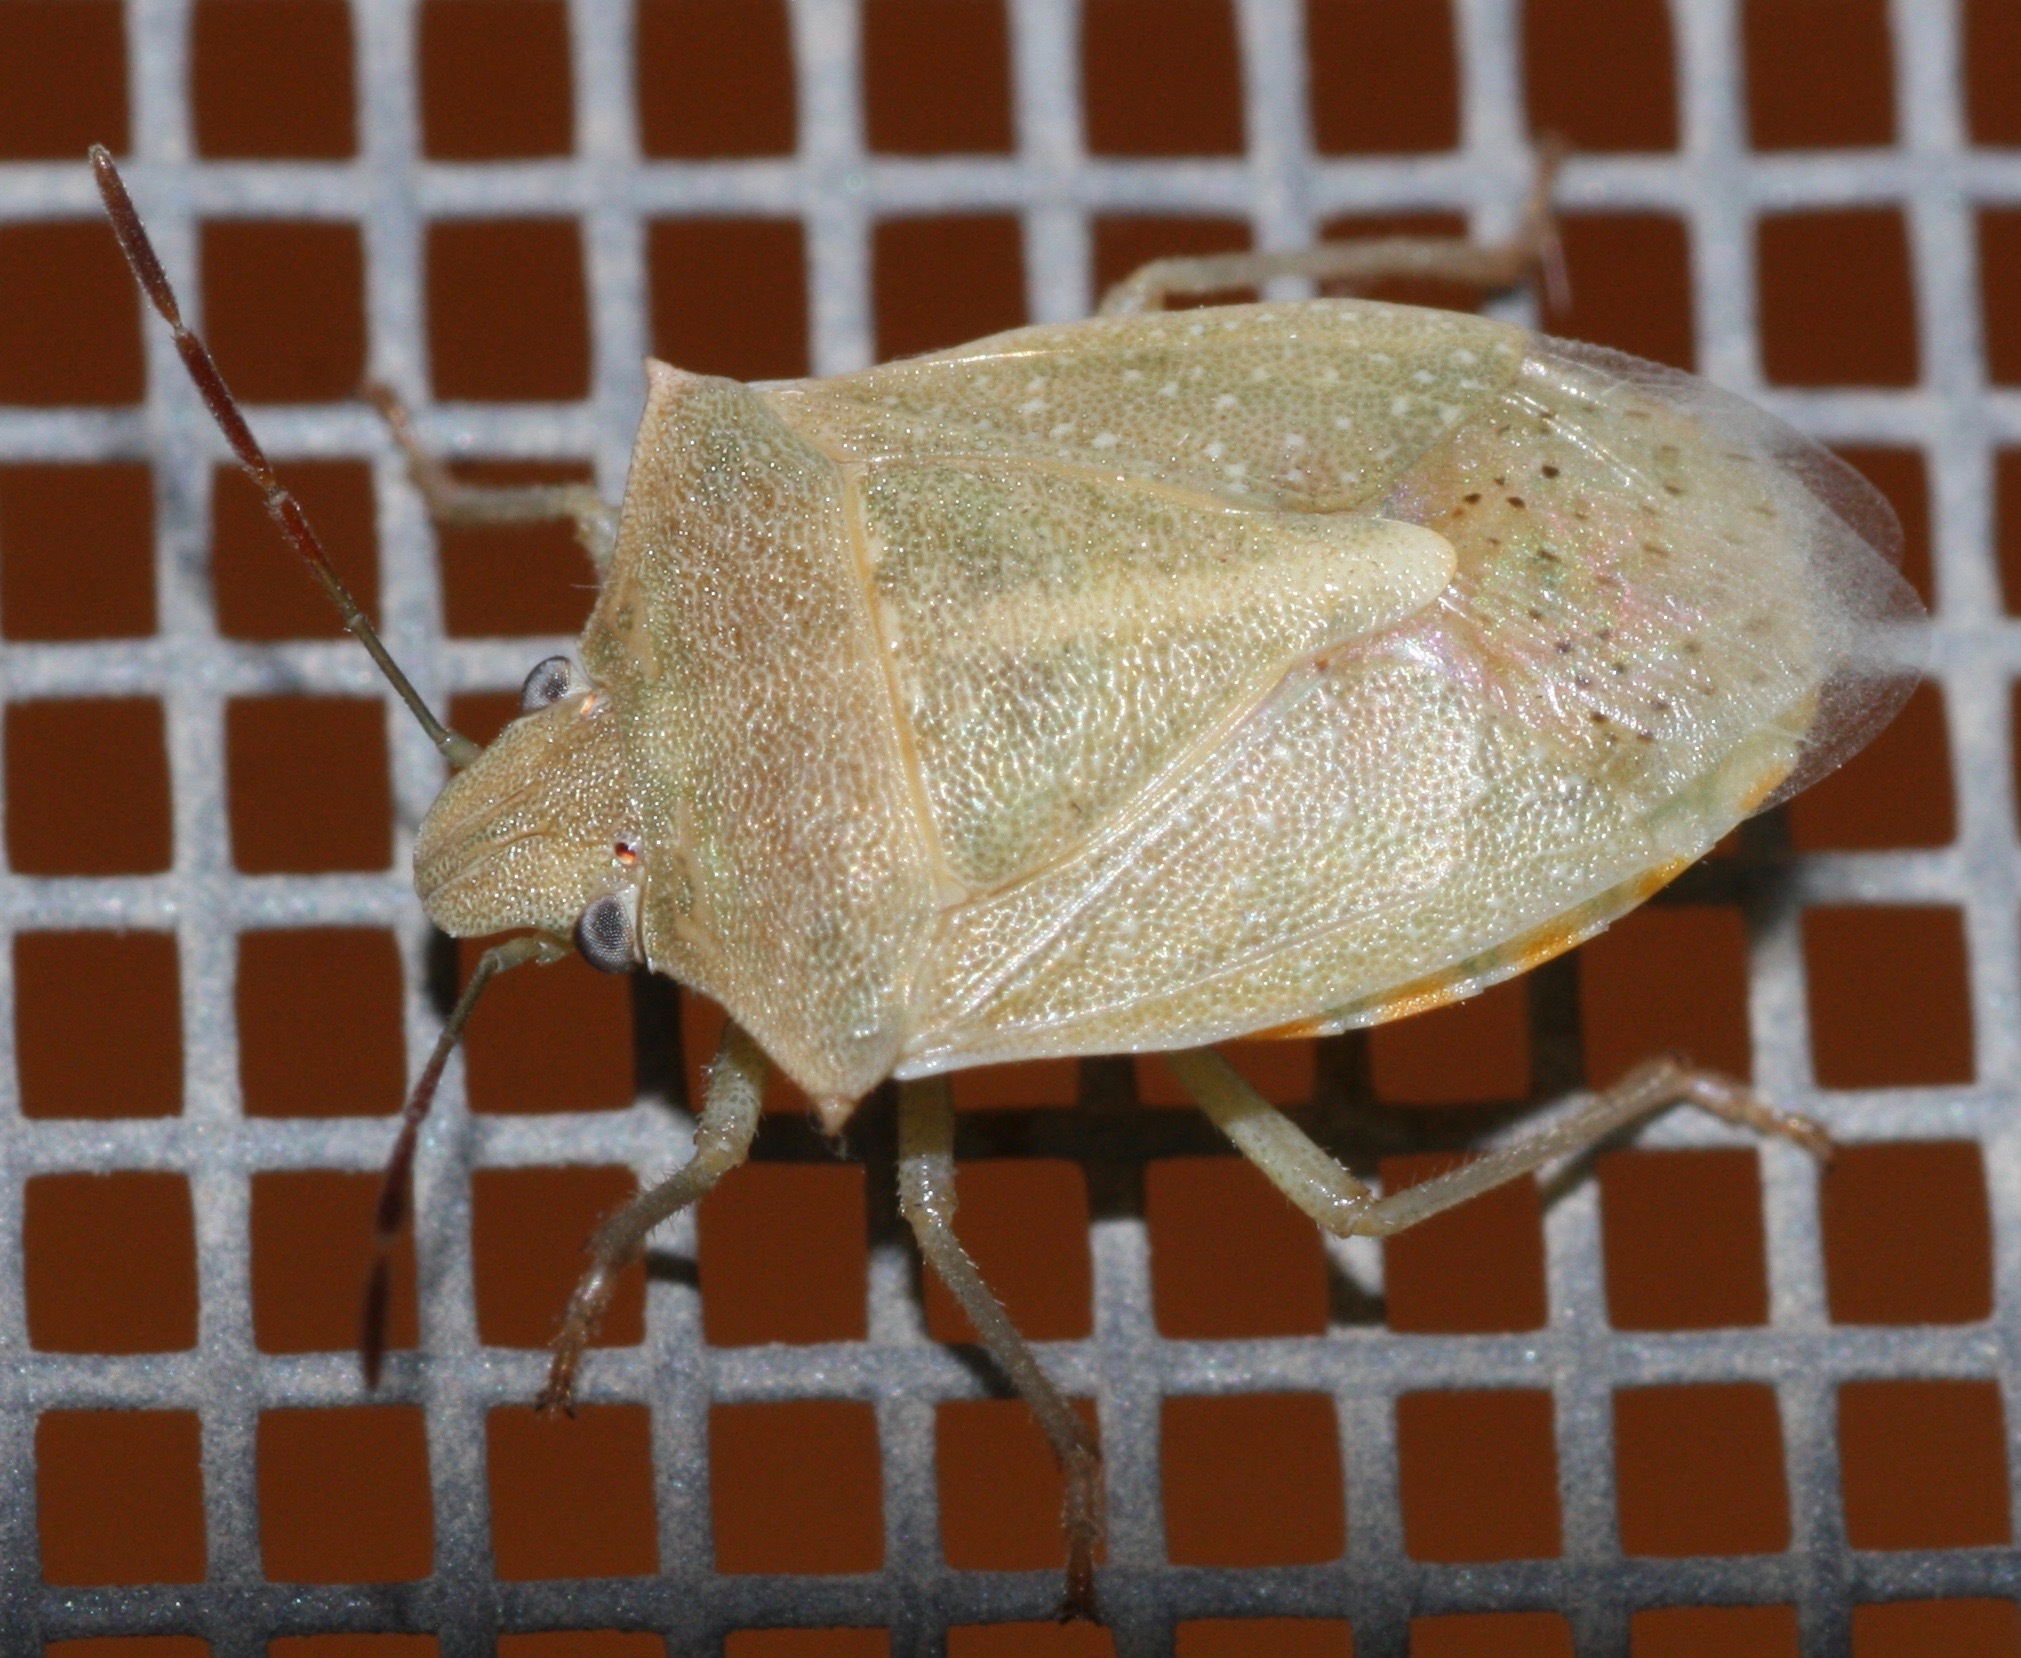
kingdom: Animalia
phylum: Arthropoda
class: Insecta
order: Hemiptera
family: Pentatomidae
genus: Thyanta
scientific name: Thyanta accerra
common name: Stink bug
